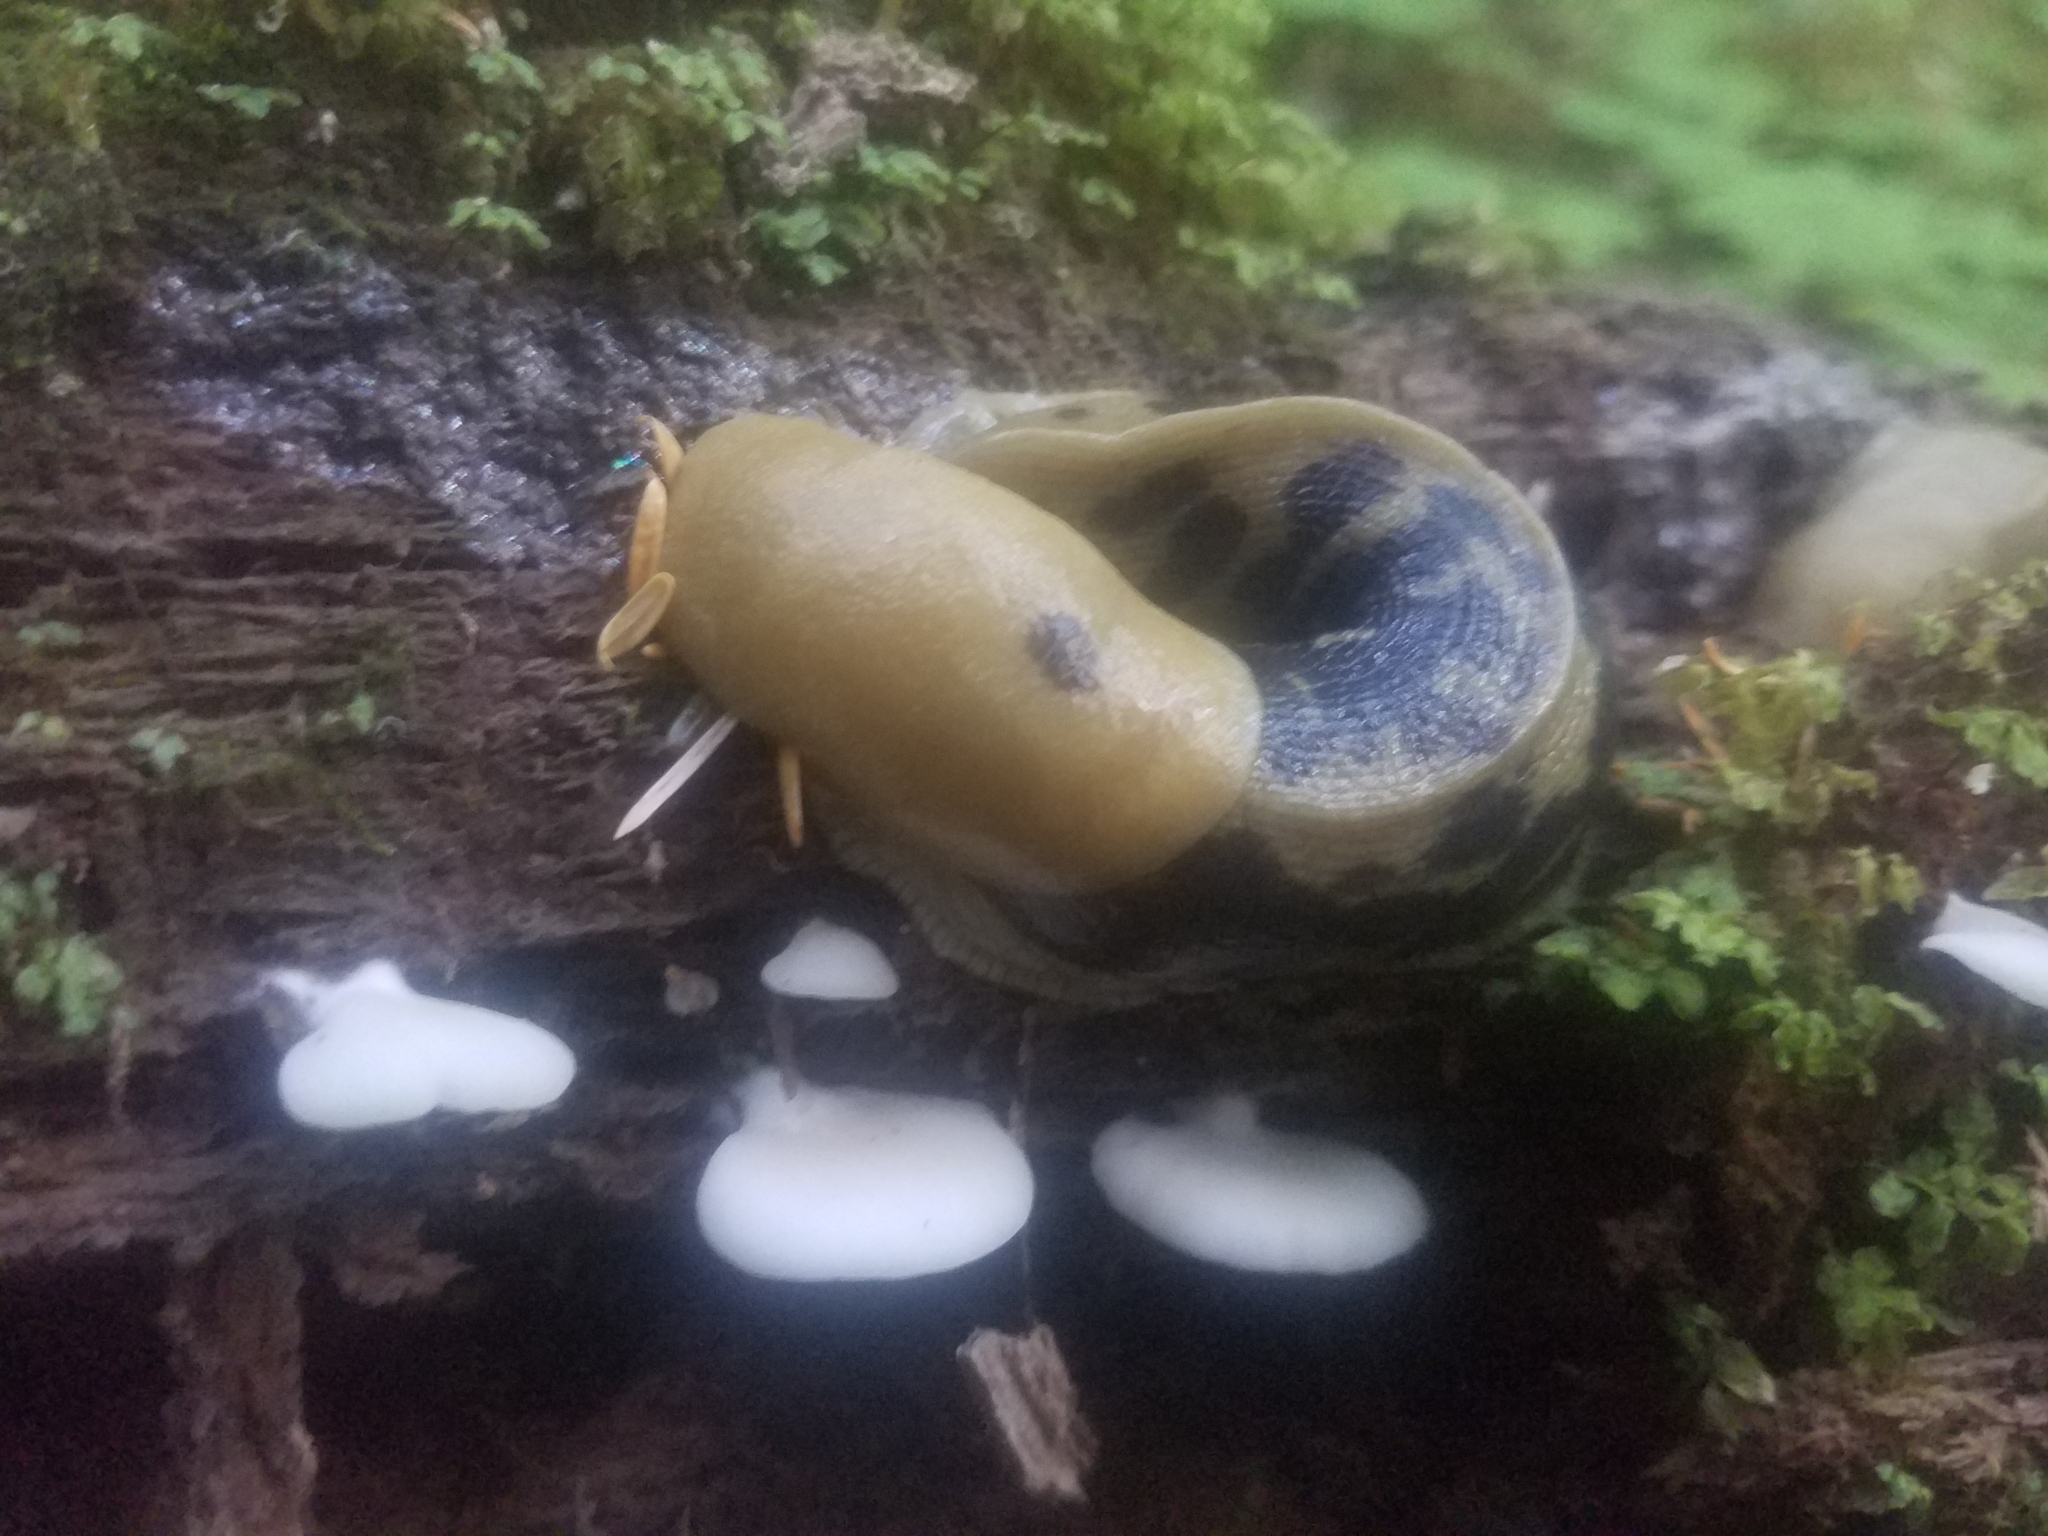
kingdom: Animalia
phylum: Mollusca
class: Gastropoda
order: Stylommatophora
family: Ariolimacidae
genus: Ariolimax
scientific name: Ariolimax columbianus
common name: Pacific banana slug
